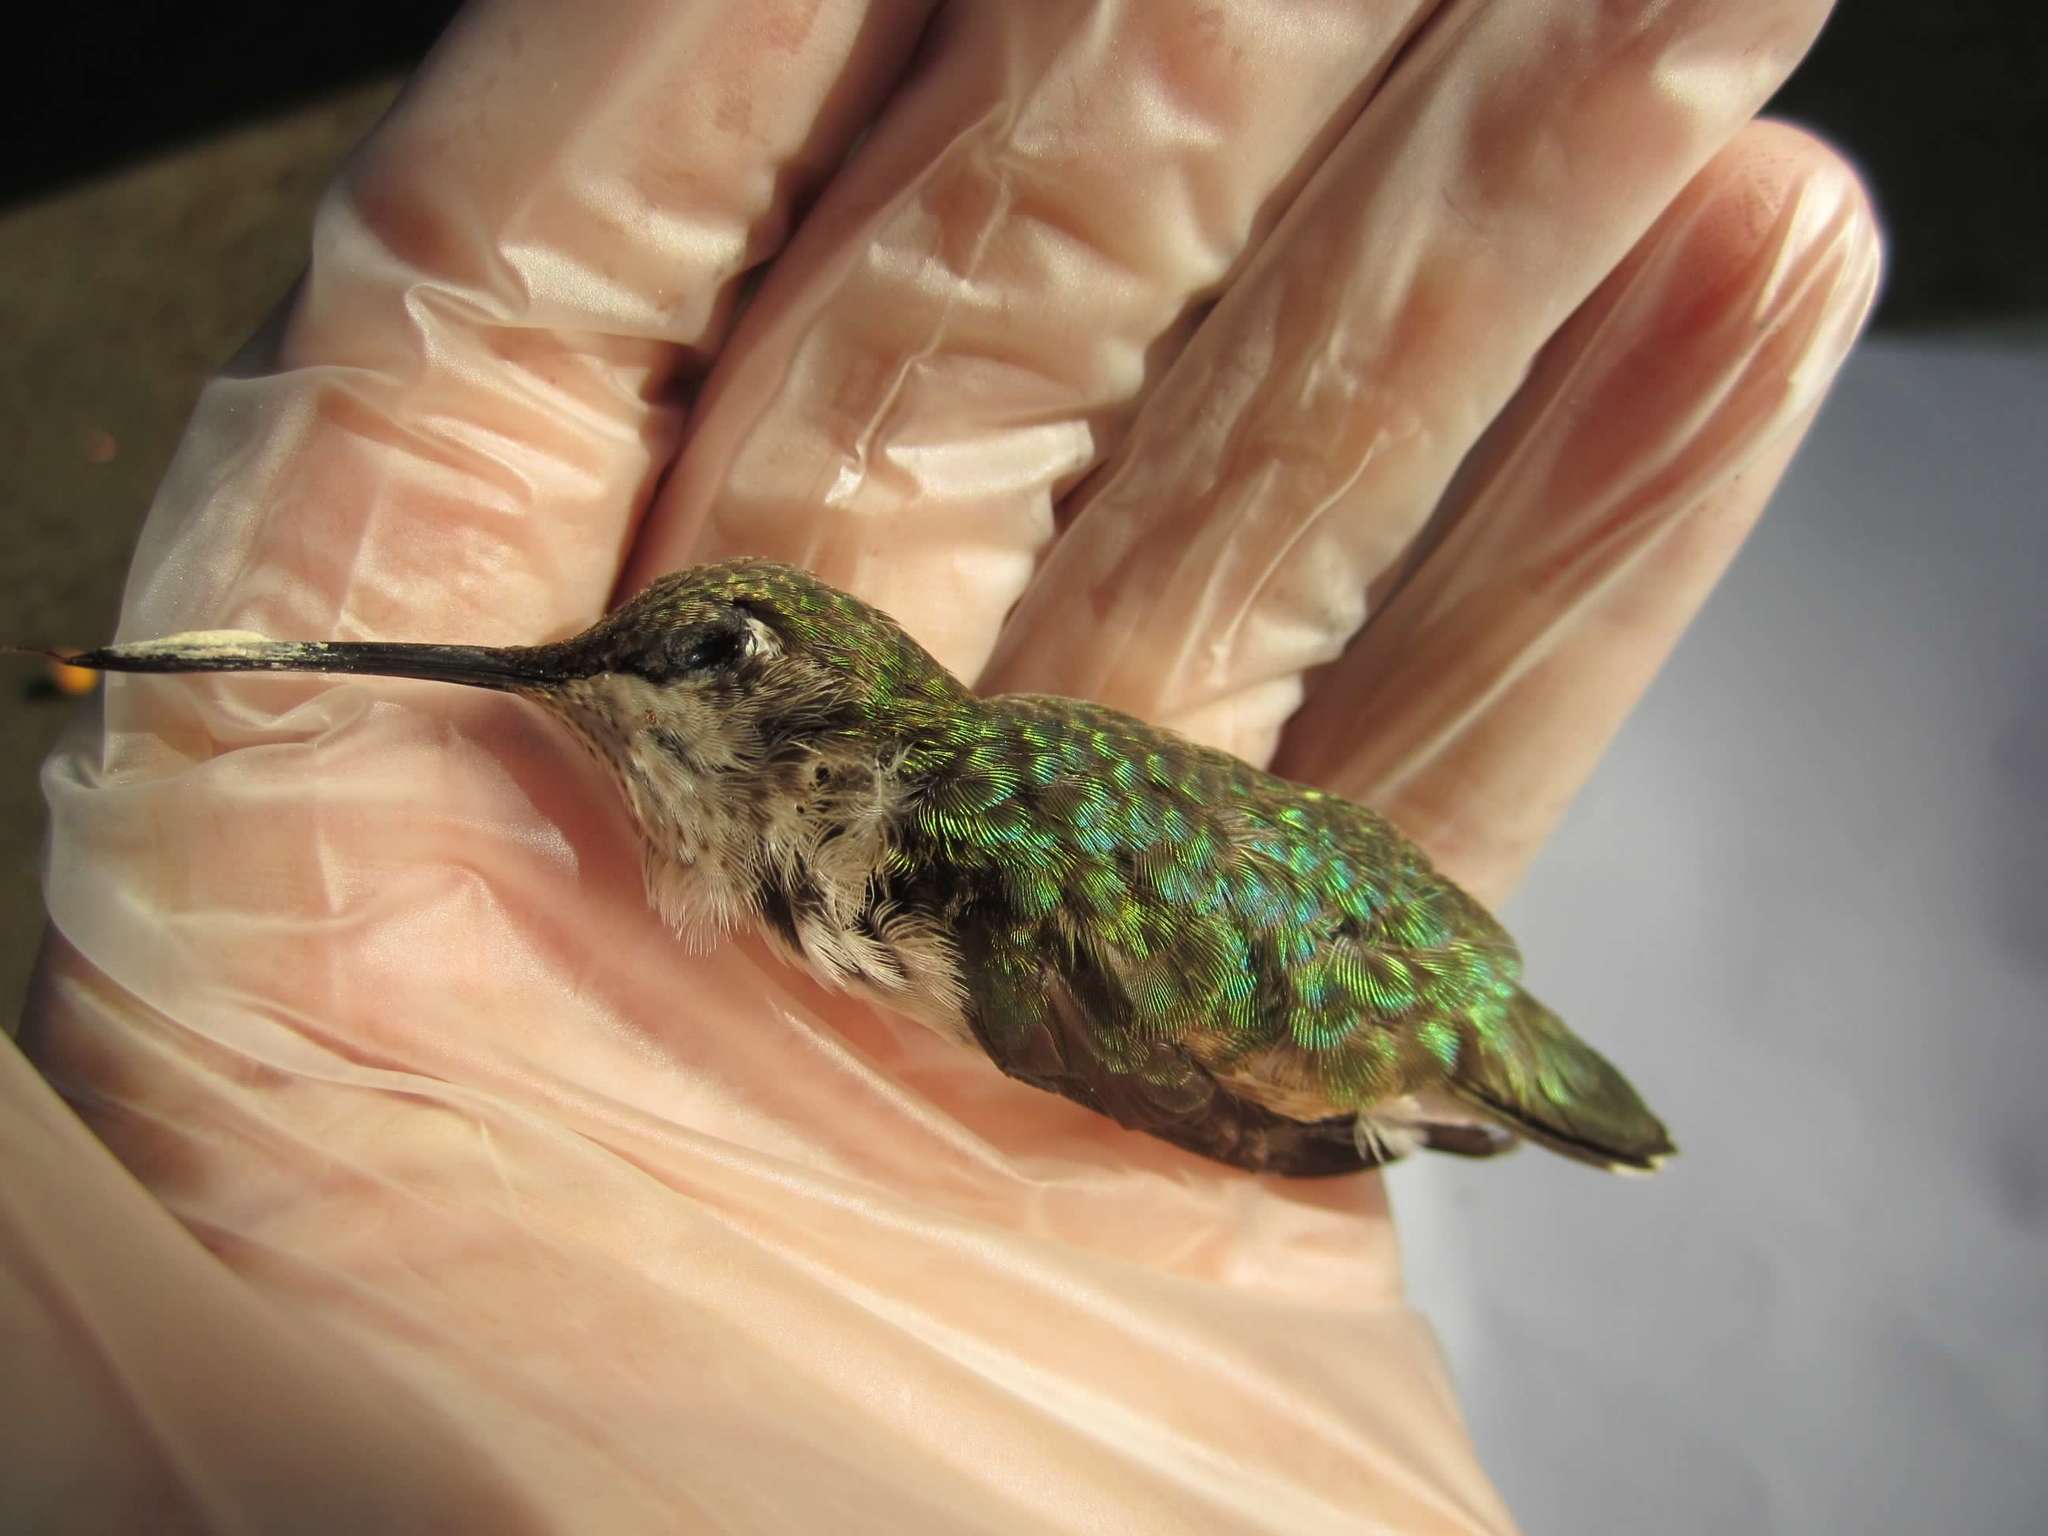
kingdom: Animalia
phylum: Chordata
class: Aves
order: Apodiformes
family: Trochilidae
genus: Archilochus
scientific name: Archilochus colubris
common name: Ruby-throated hummingbird
